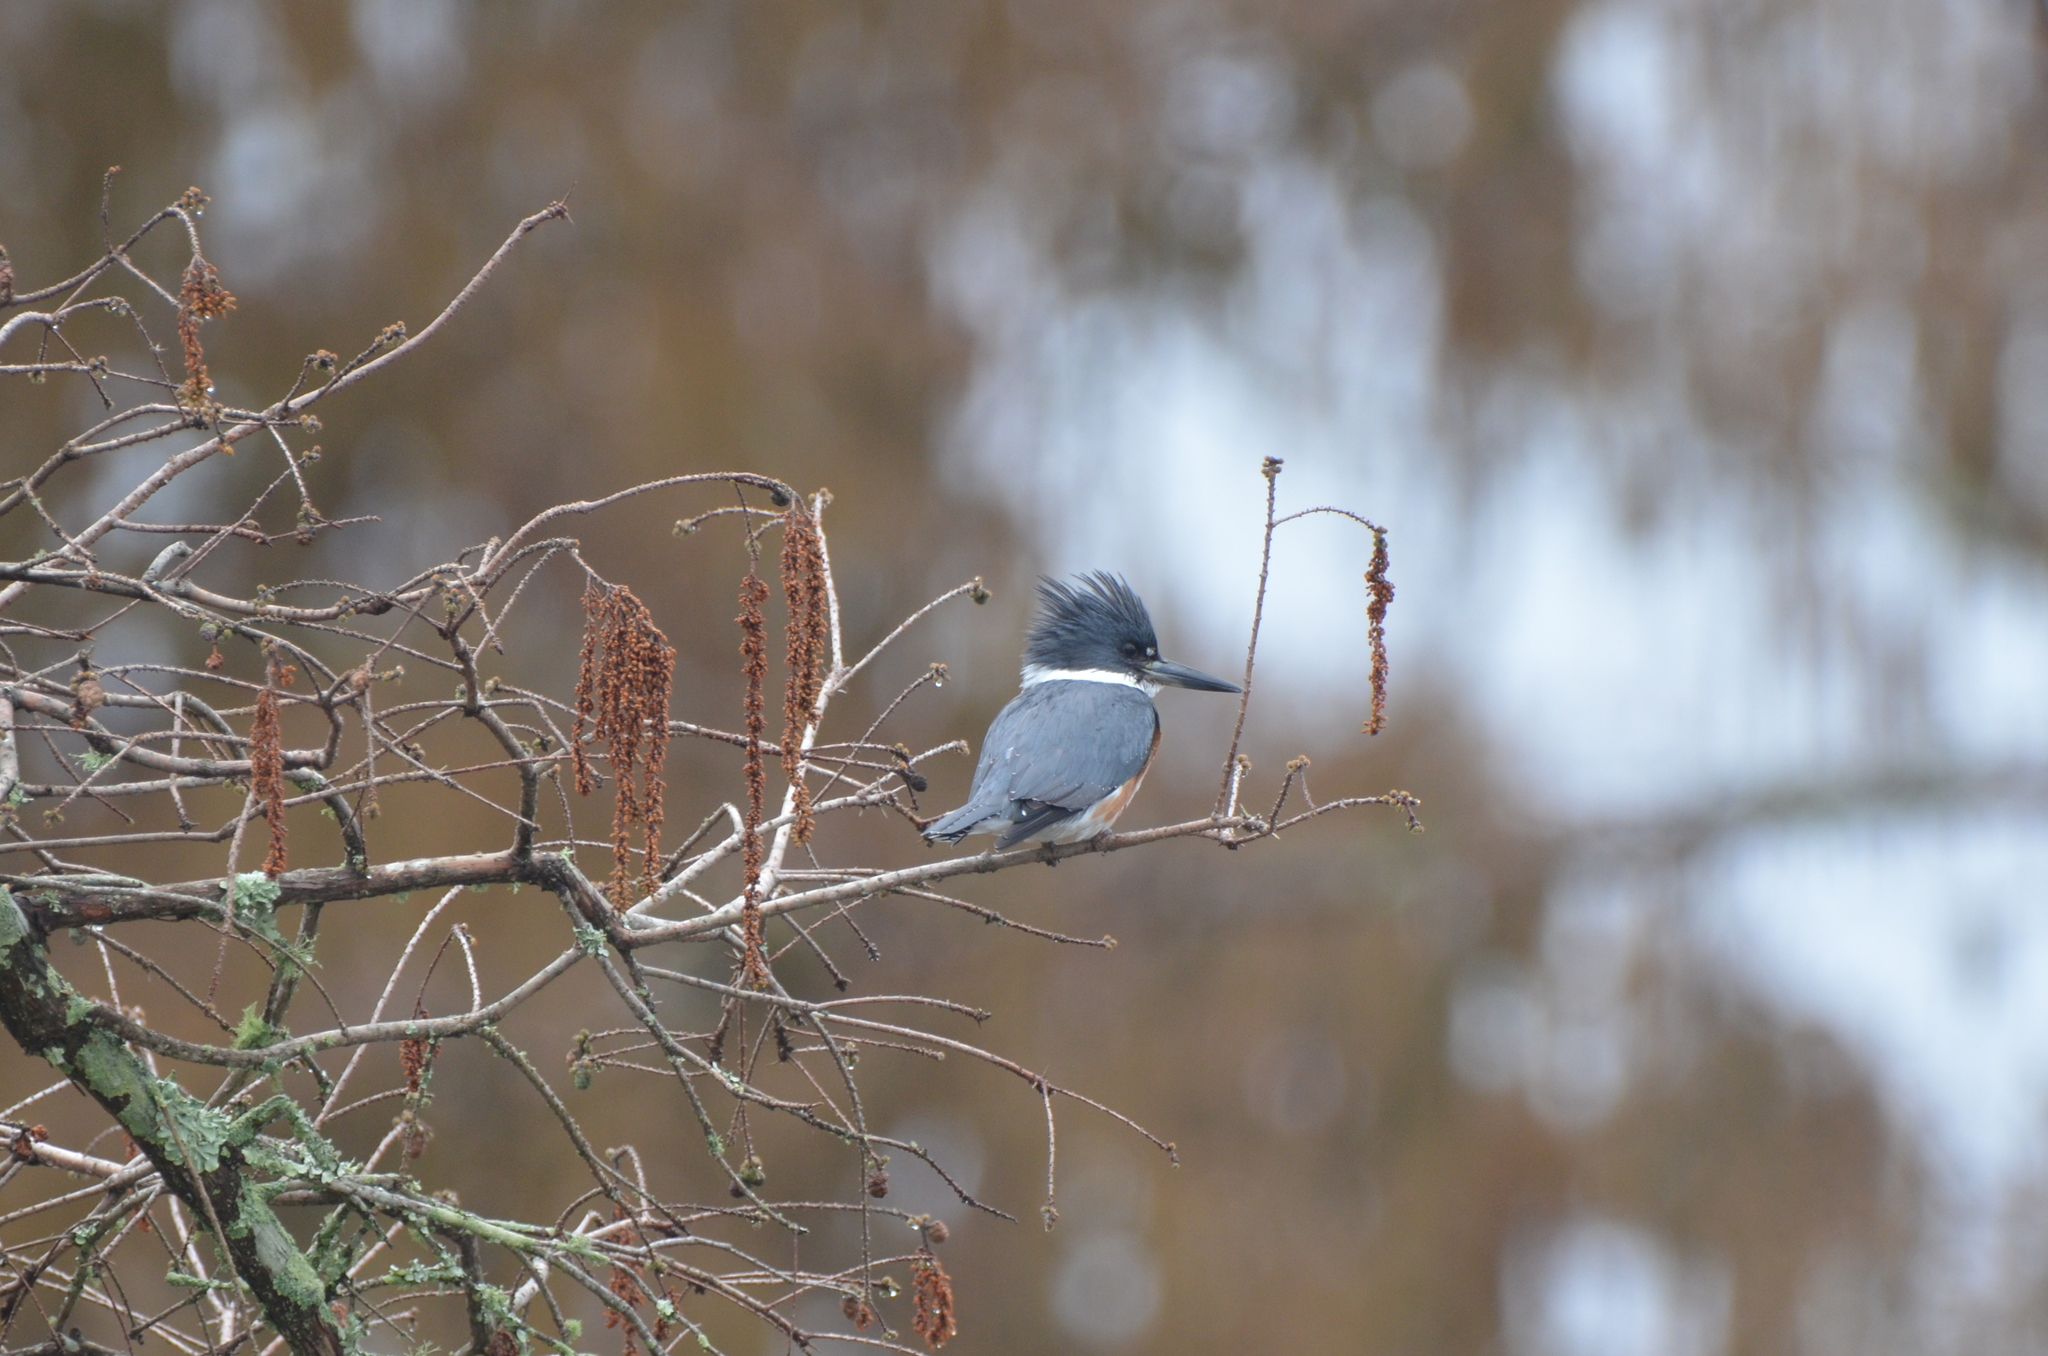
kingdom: Animalia
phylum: Chordata
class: Aves
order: Coraciiformes
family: Alcedinidae
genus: Megaceryle
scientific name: Megaceryle alcyon
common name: Belted kingfisher
